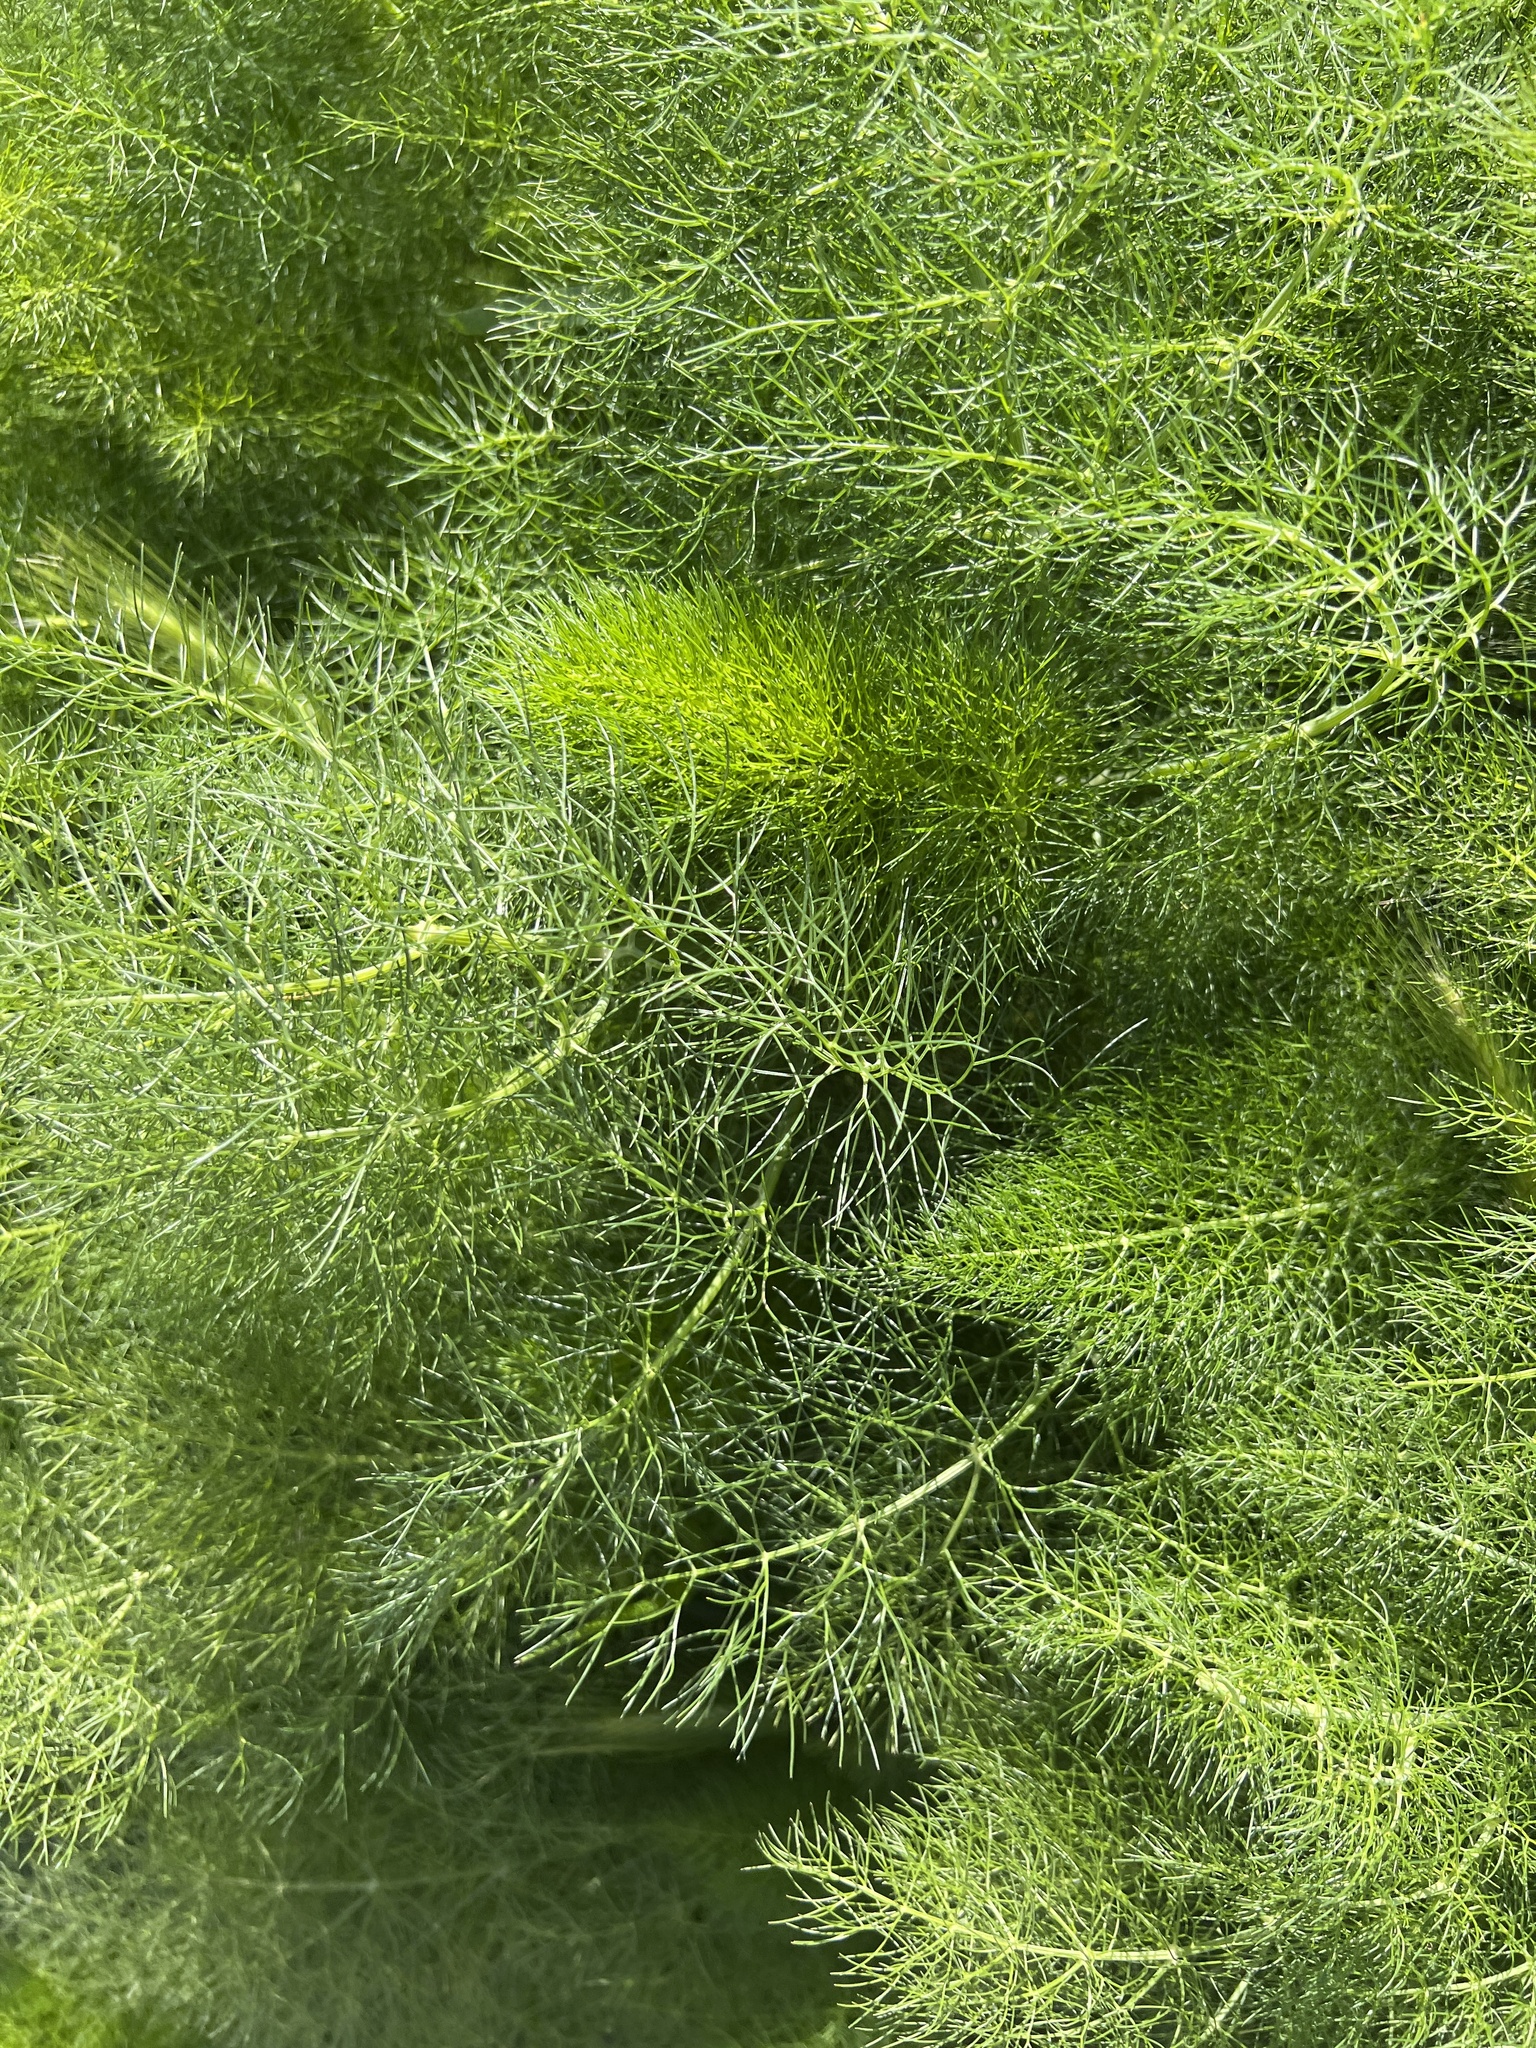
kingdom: Plantae
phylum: Tracheophyta
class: Magnoliopsida
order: Apiales
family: Apiaceae
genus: Foeniculum
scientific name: Foeniculum vulgare
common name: Fennel
